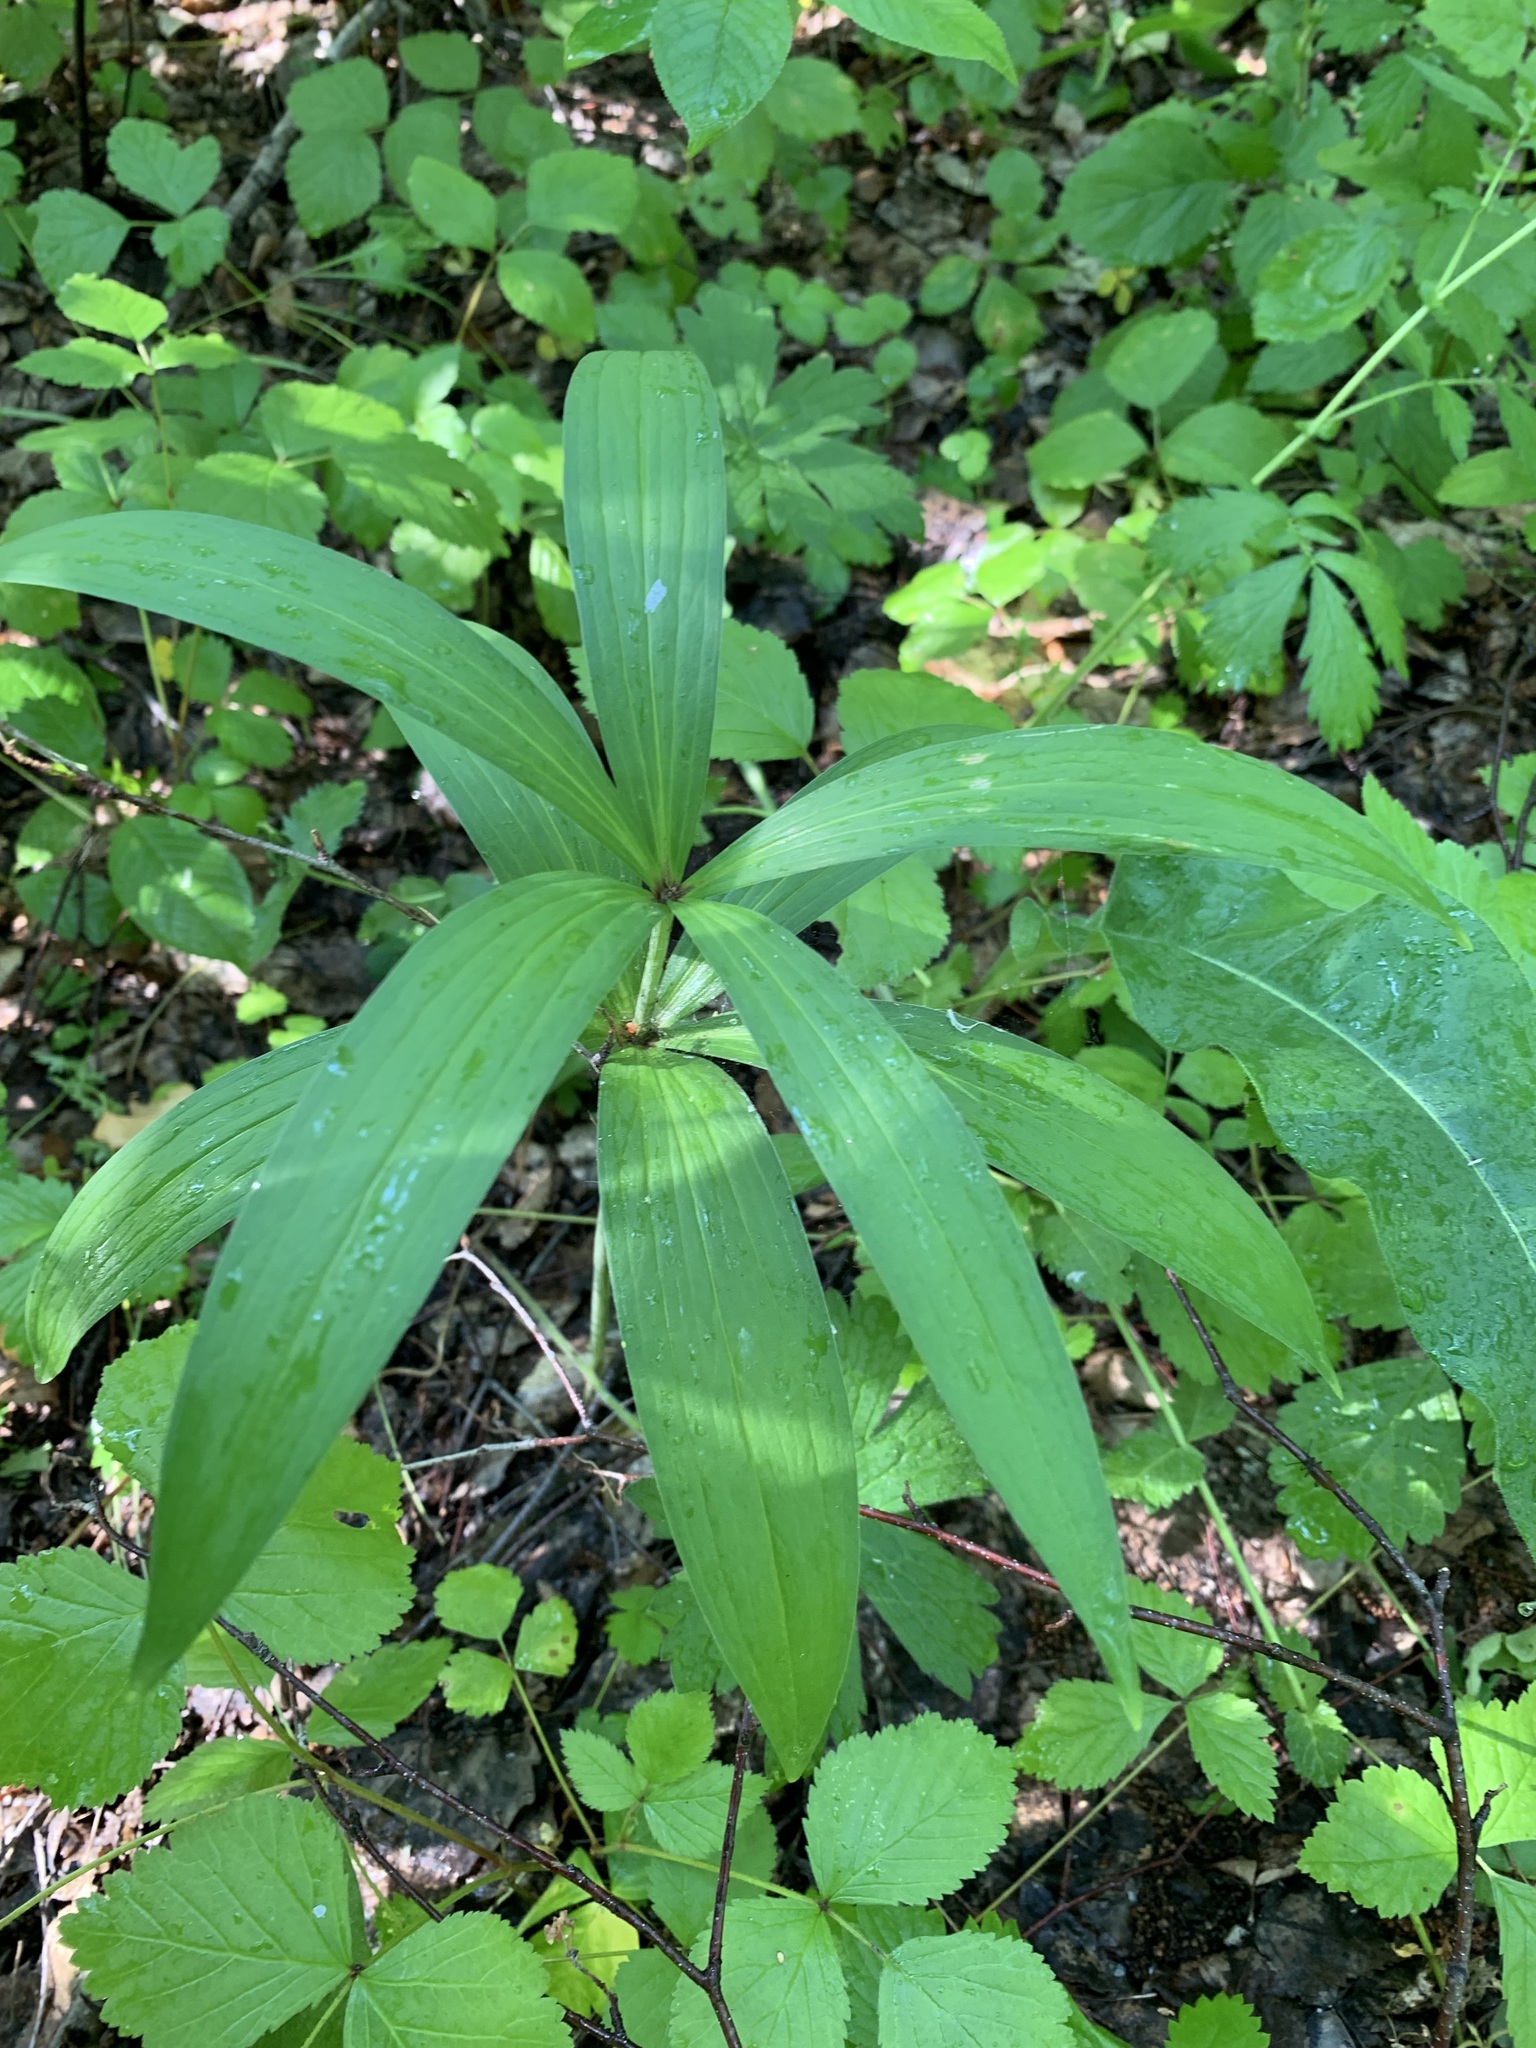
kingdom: Plantae
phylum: Tracheophyta
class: Liliopsida
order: Liliales
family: Liliaceae
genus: Lilium
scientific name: Lilium martagon
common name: Martagon lily
